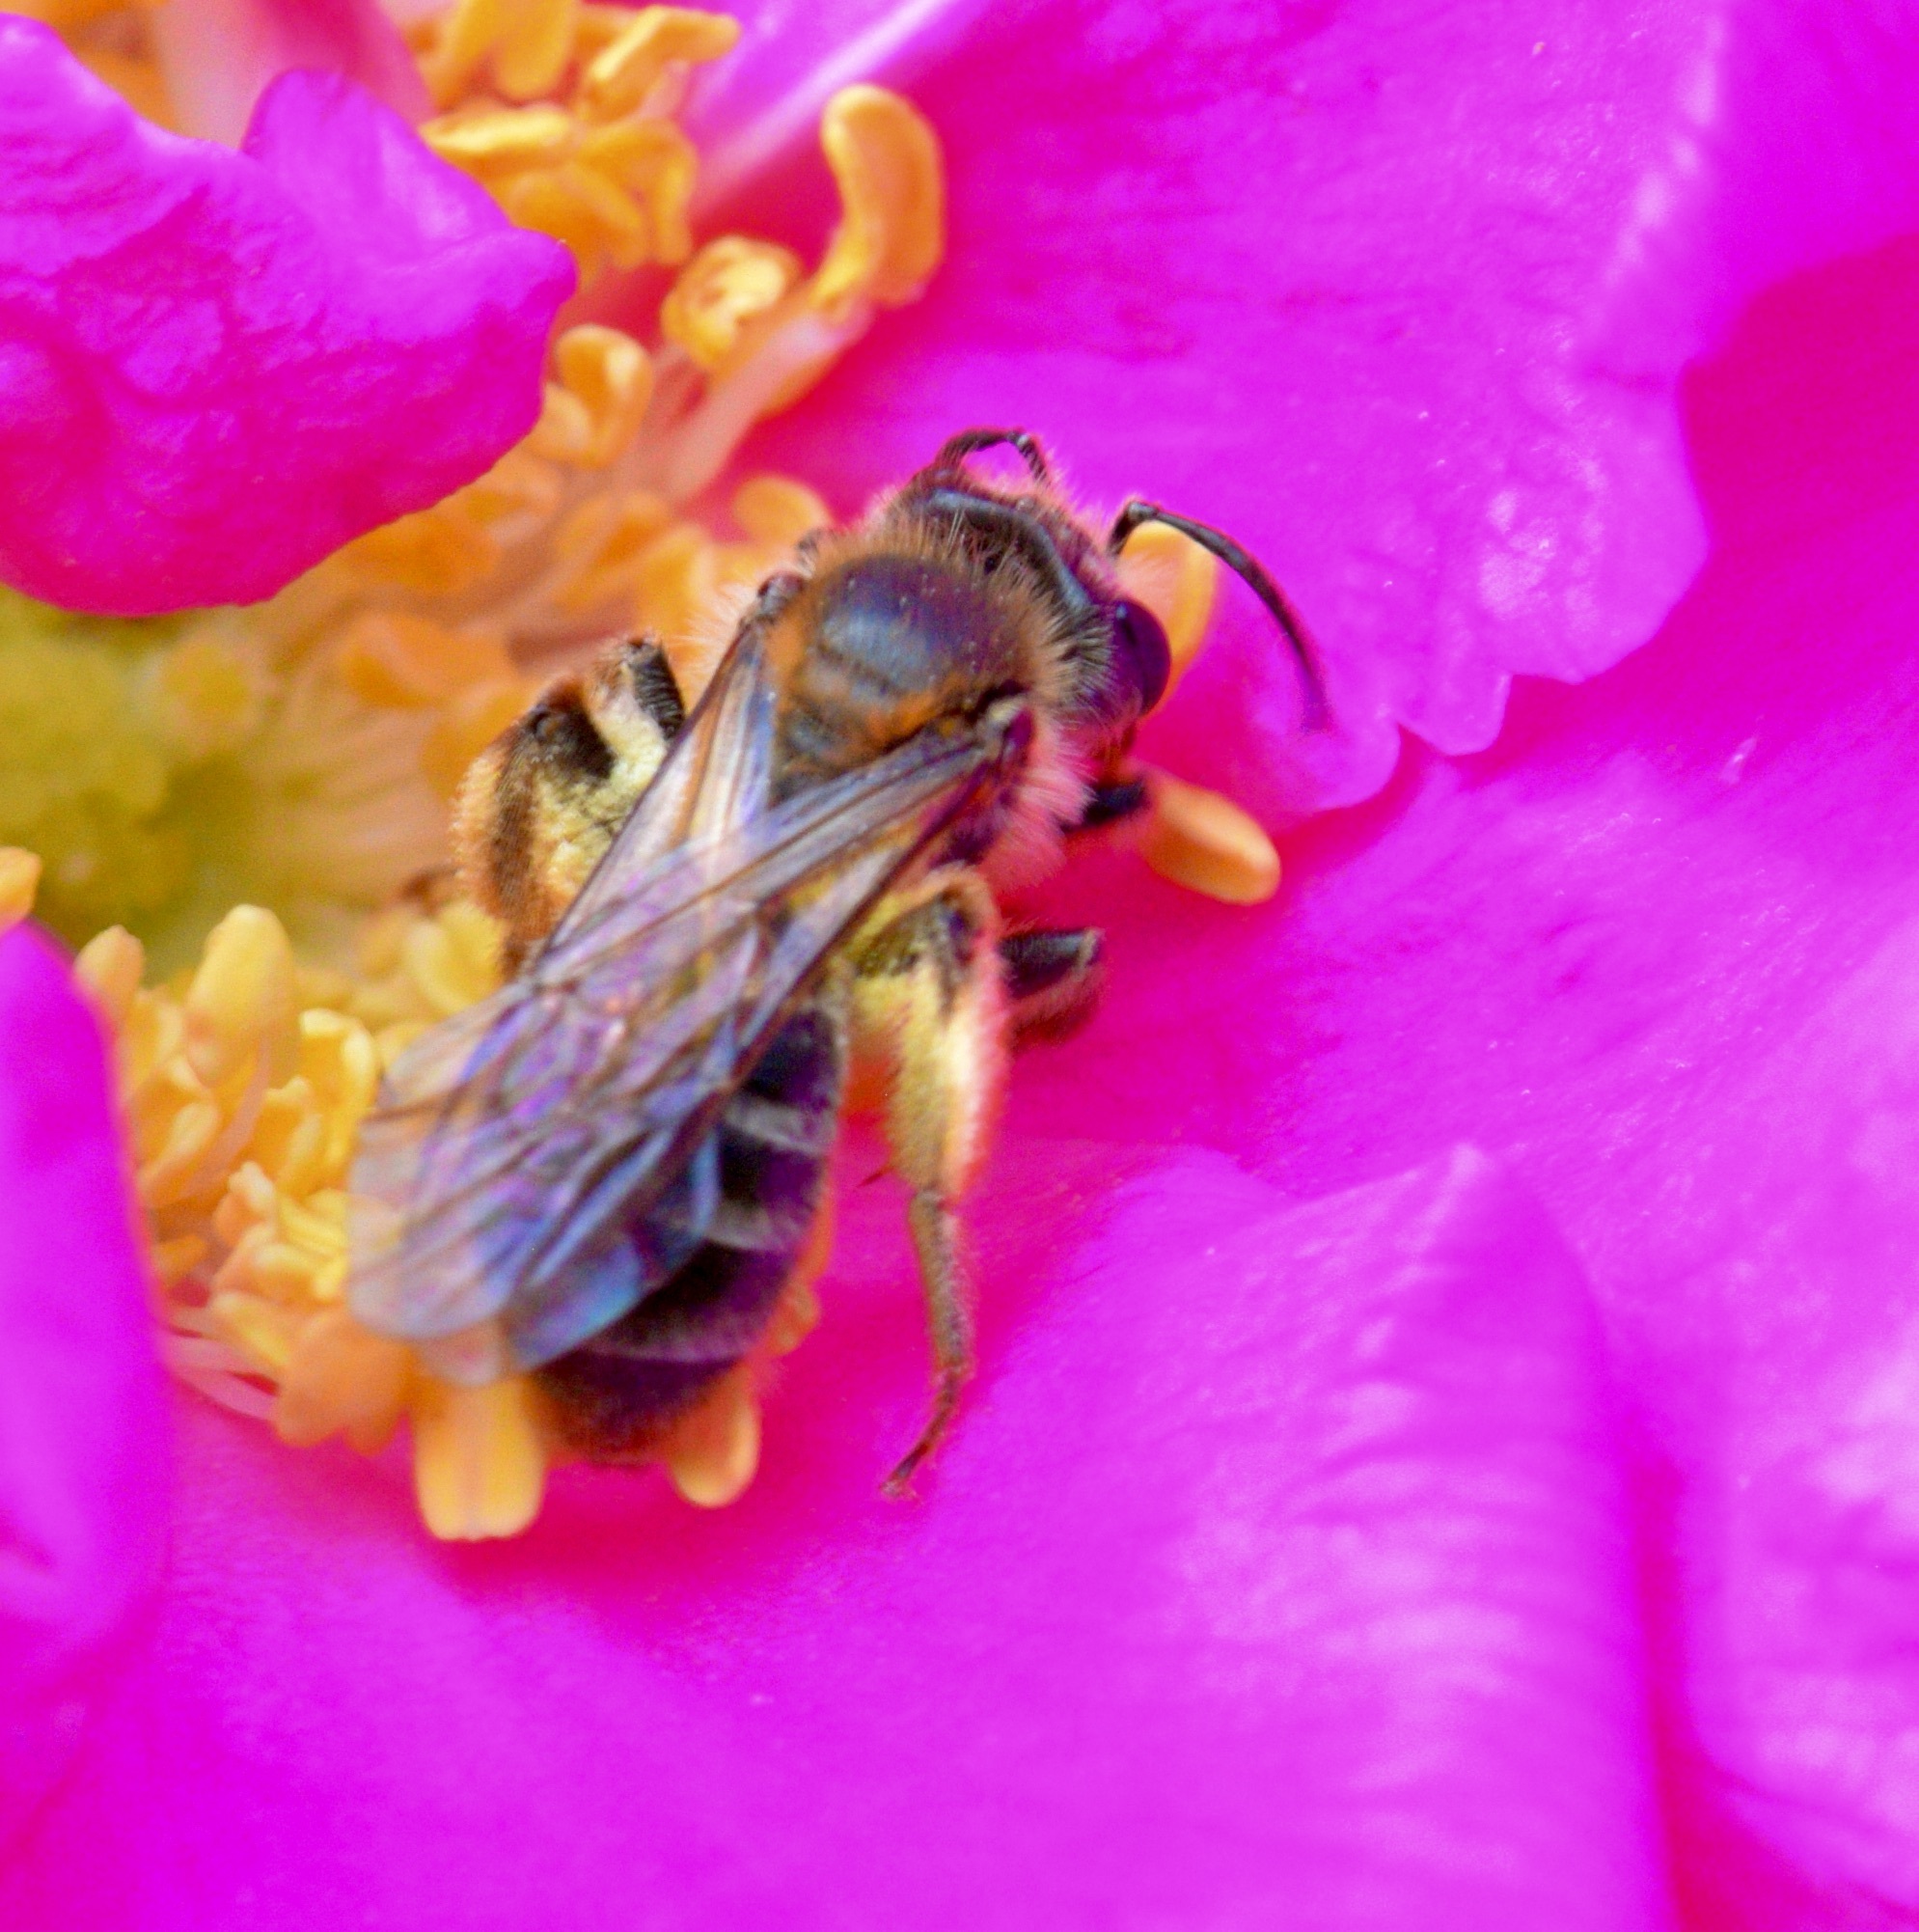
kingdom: Animalia
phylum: Arthropoda
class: Insecta
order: Hymenoptera
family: Andrenidae
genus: Andrena
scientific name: Andrena thaspii
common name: Parsnip miner bee
